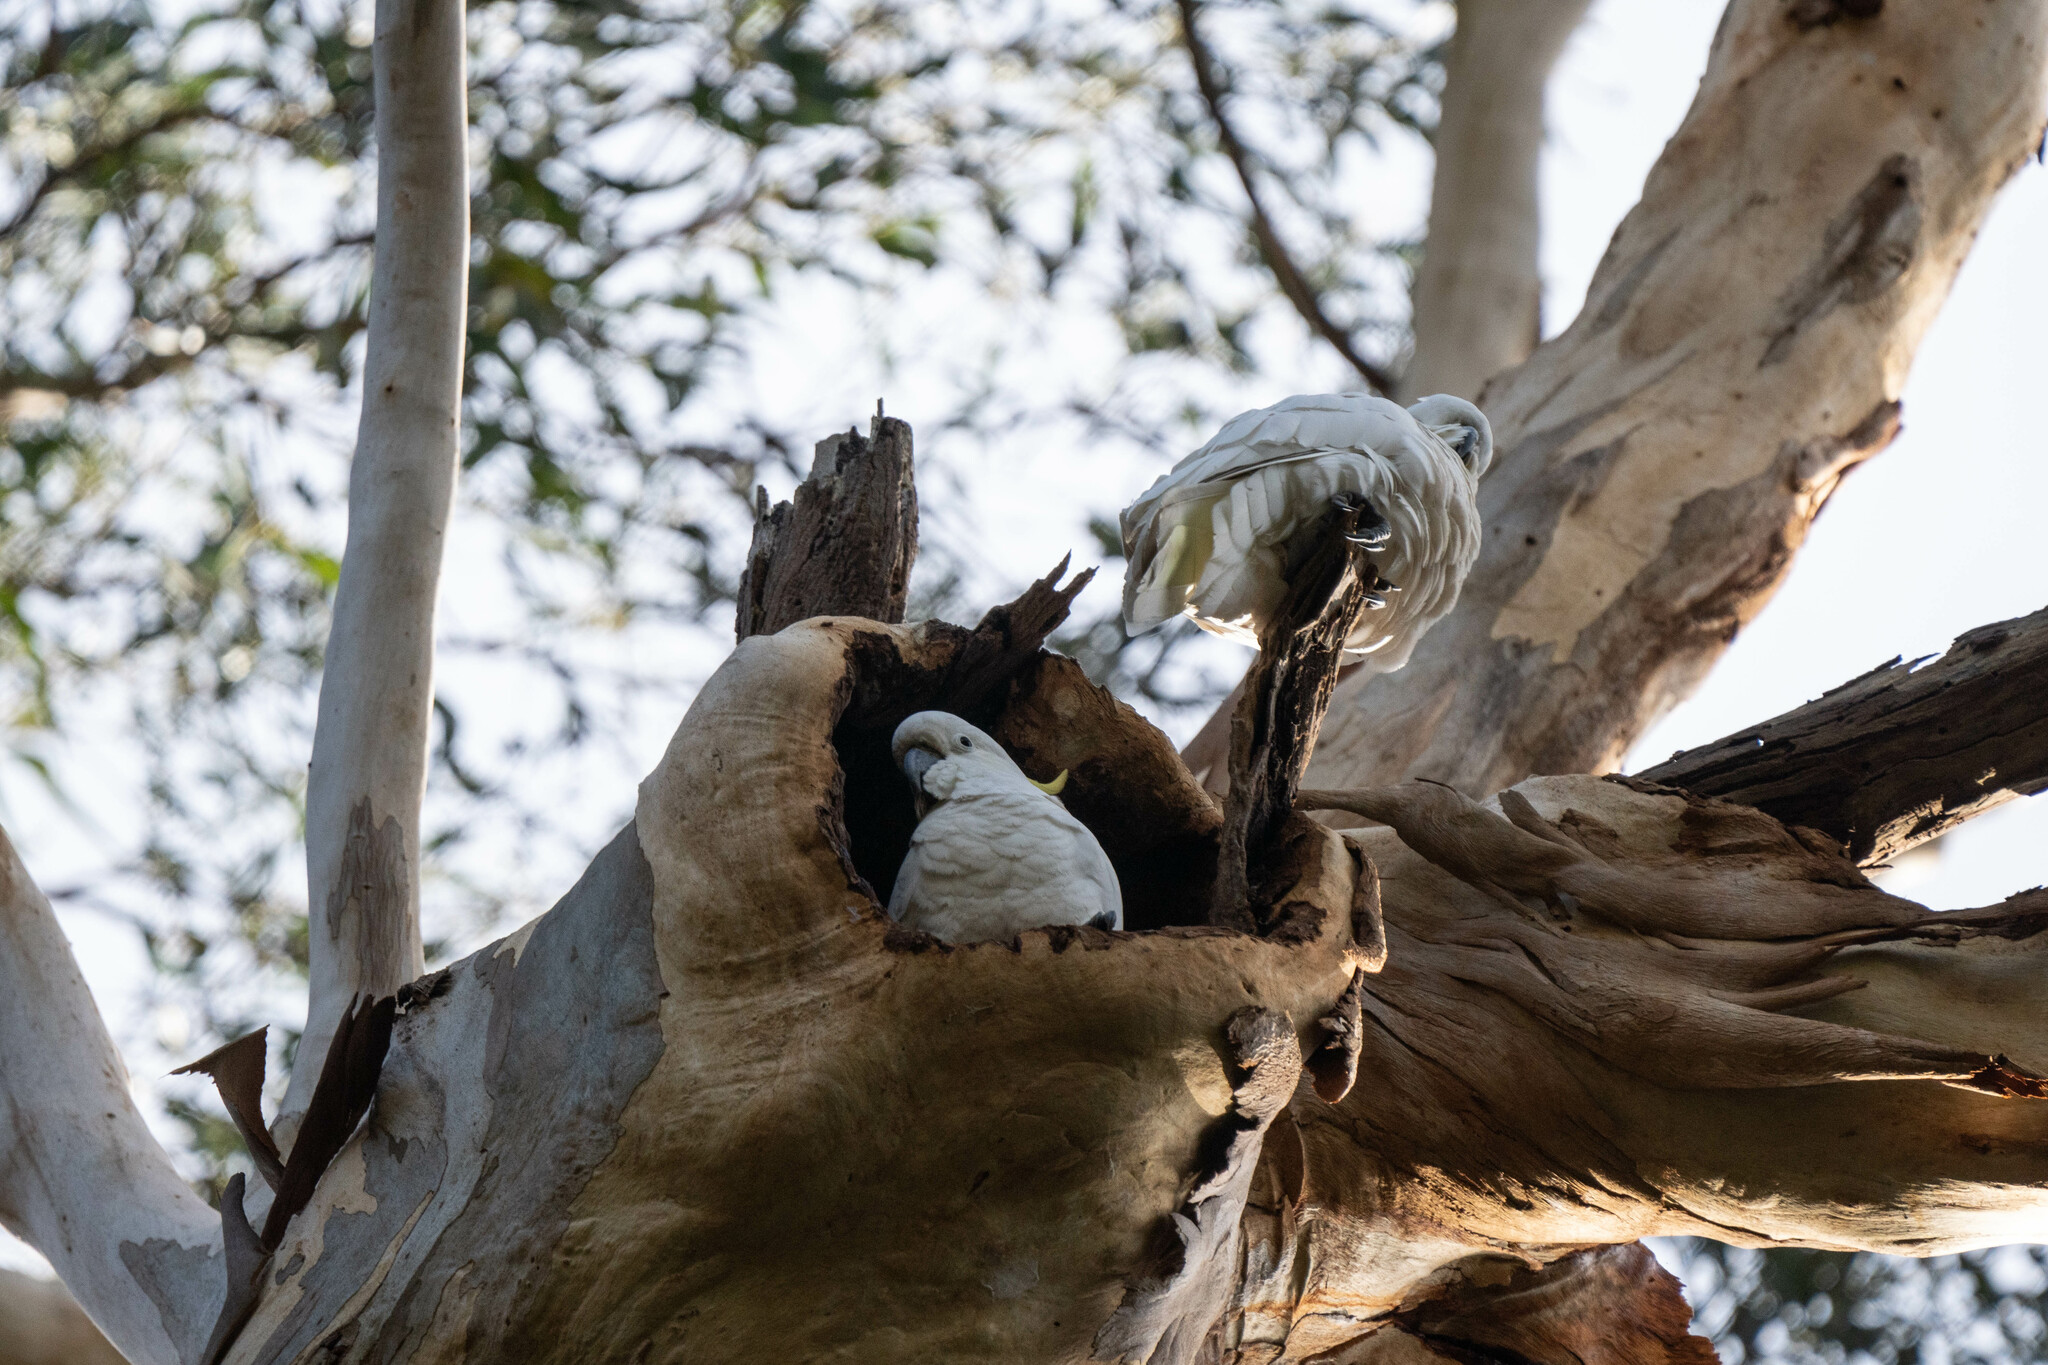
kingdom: Animalia
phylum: Chordata
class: Aves
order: Psittaciformes
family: Psittacidae
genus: Cacatua
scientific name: Cacatua galerita
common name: Sulphur-crested cockatoo
